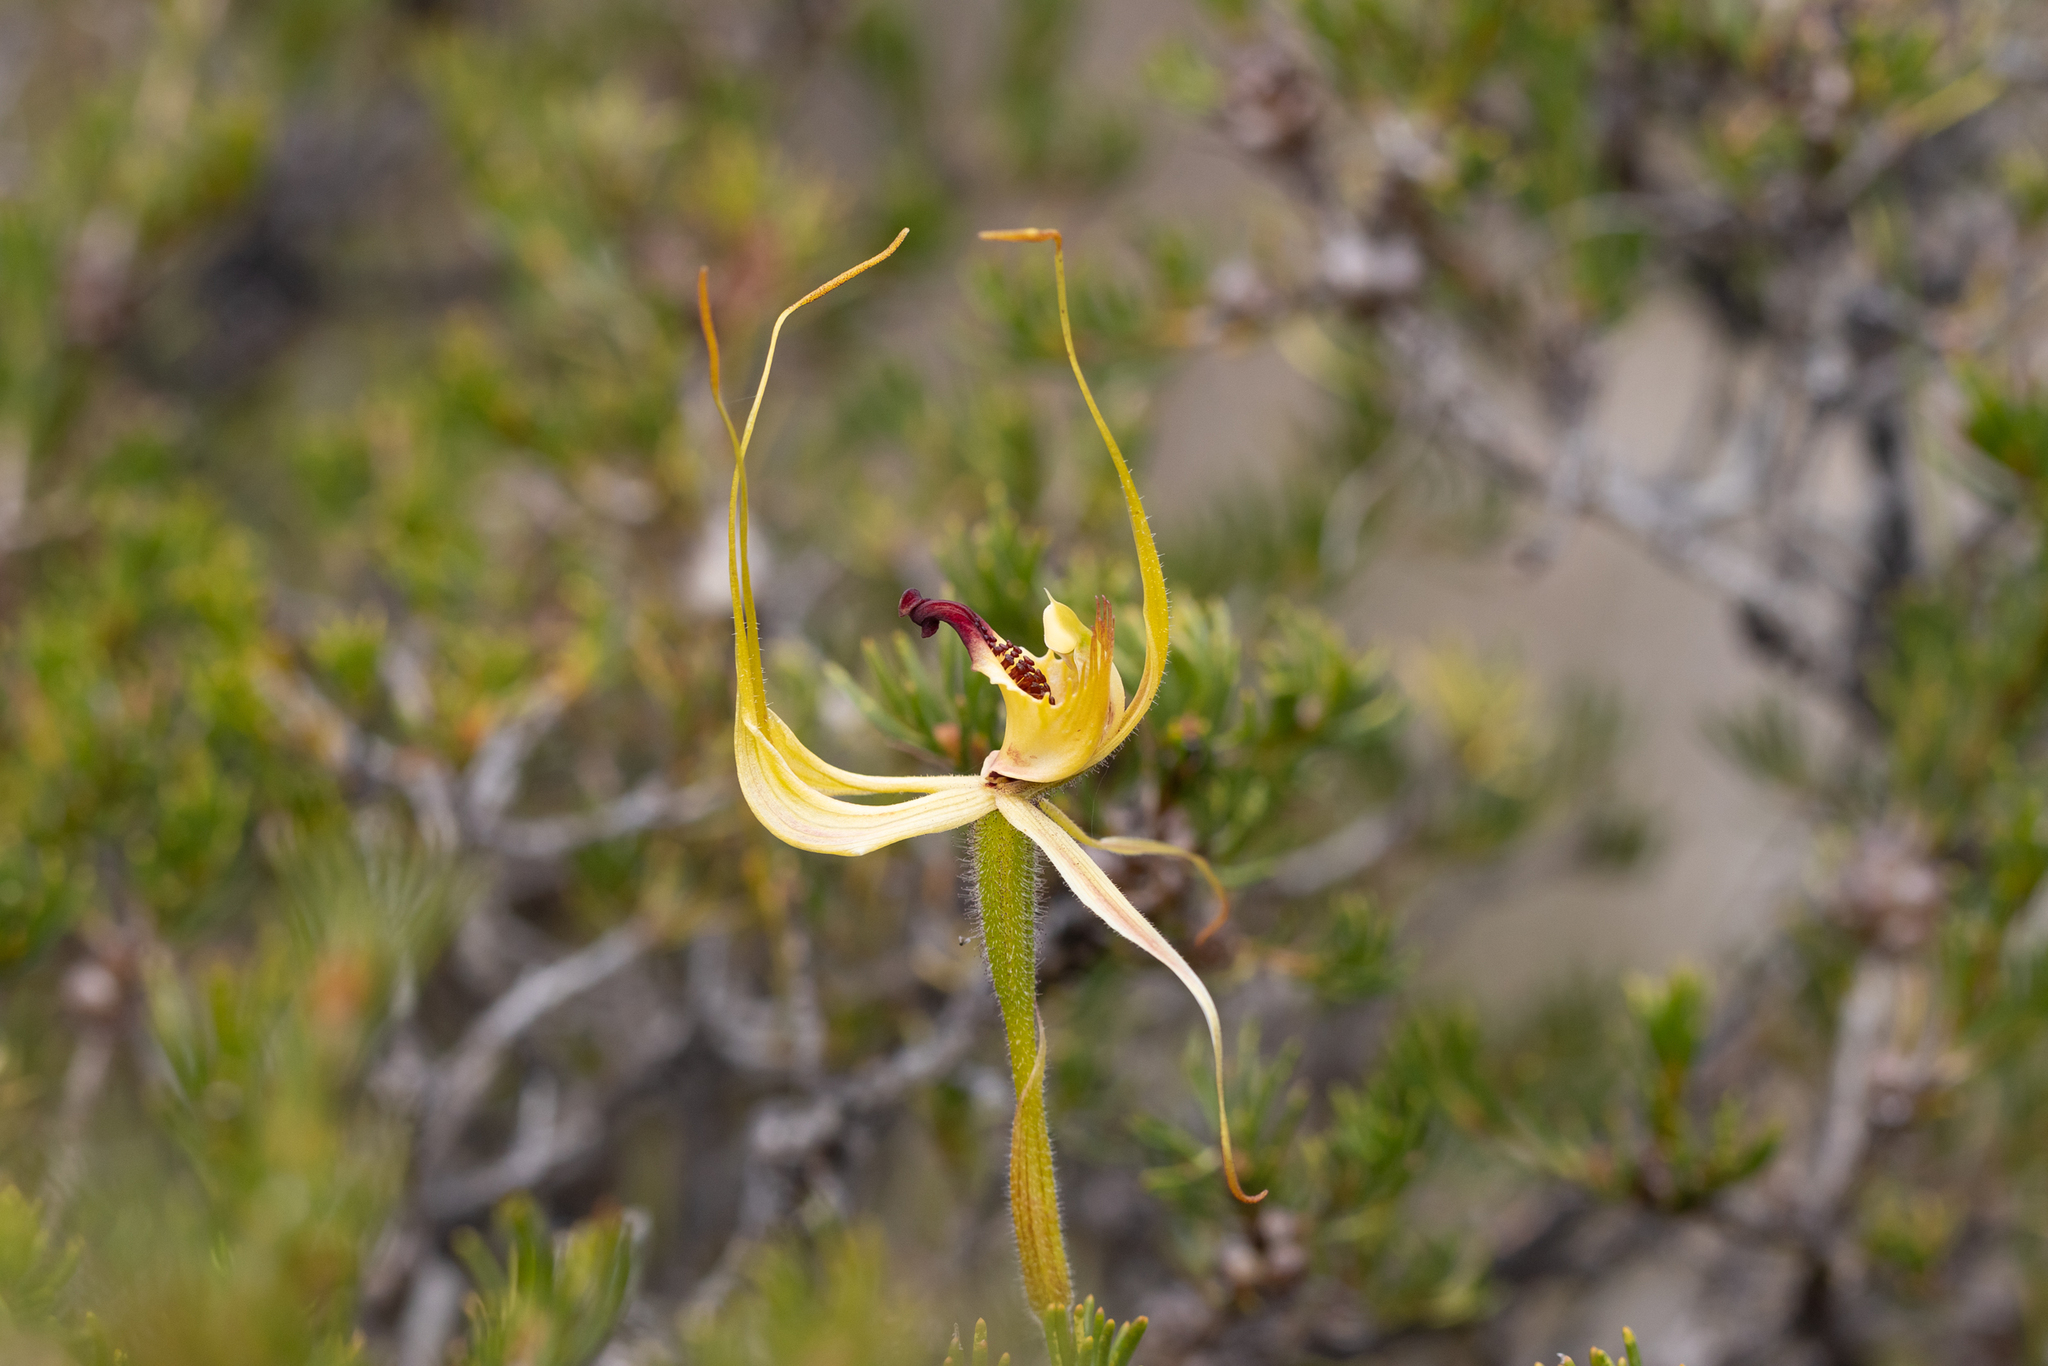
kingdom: Plantae
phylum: Tracheophyta
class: Liliopsida
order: Asparagales
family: Orchidaceae
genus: Caladenia
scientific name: Caladenia attingens
